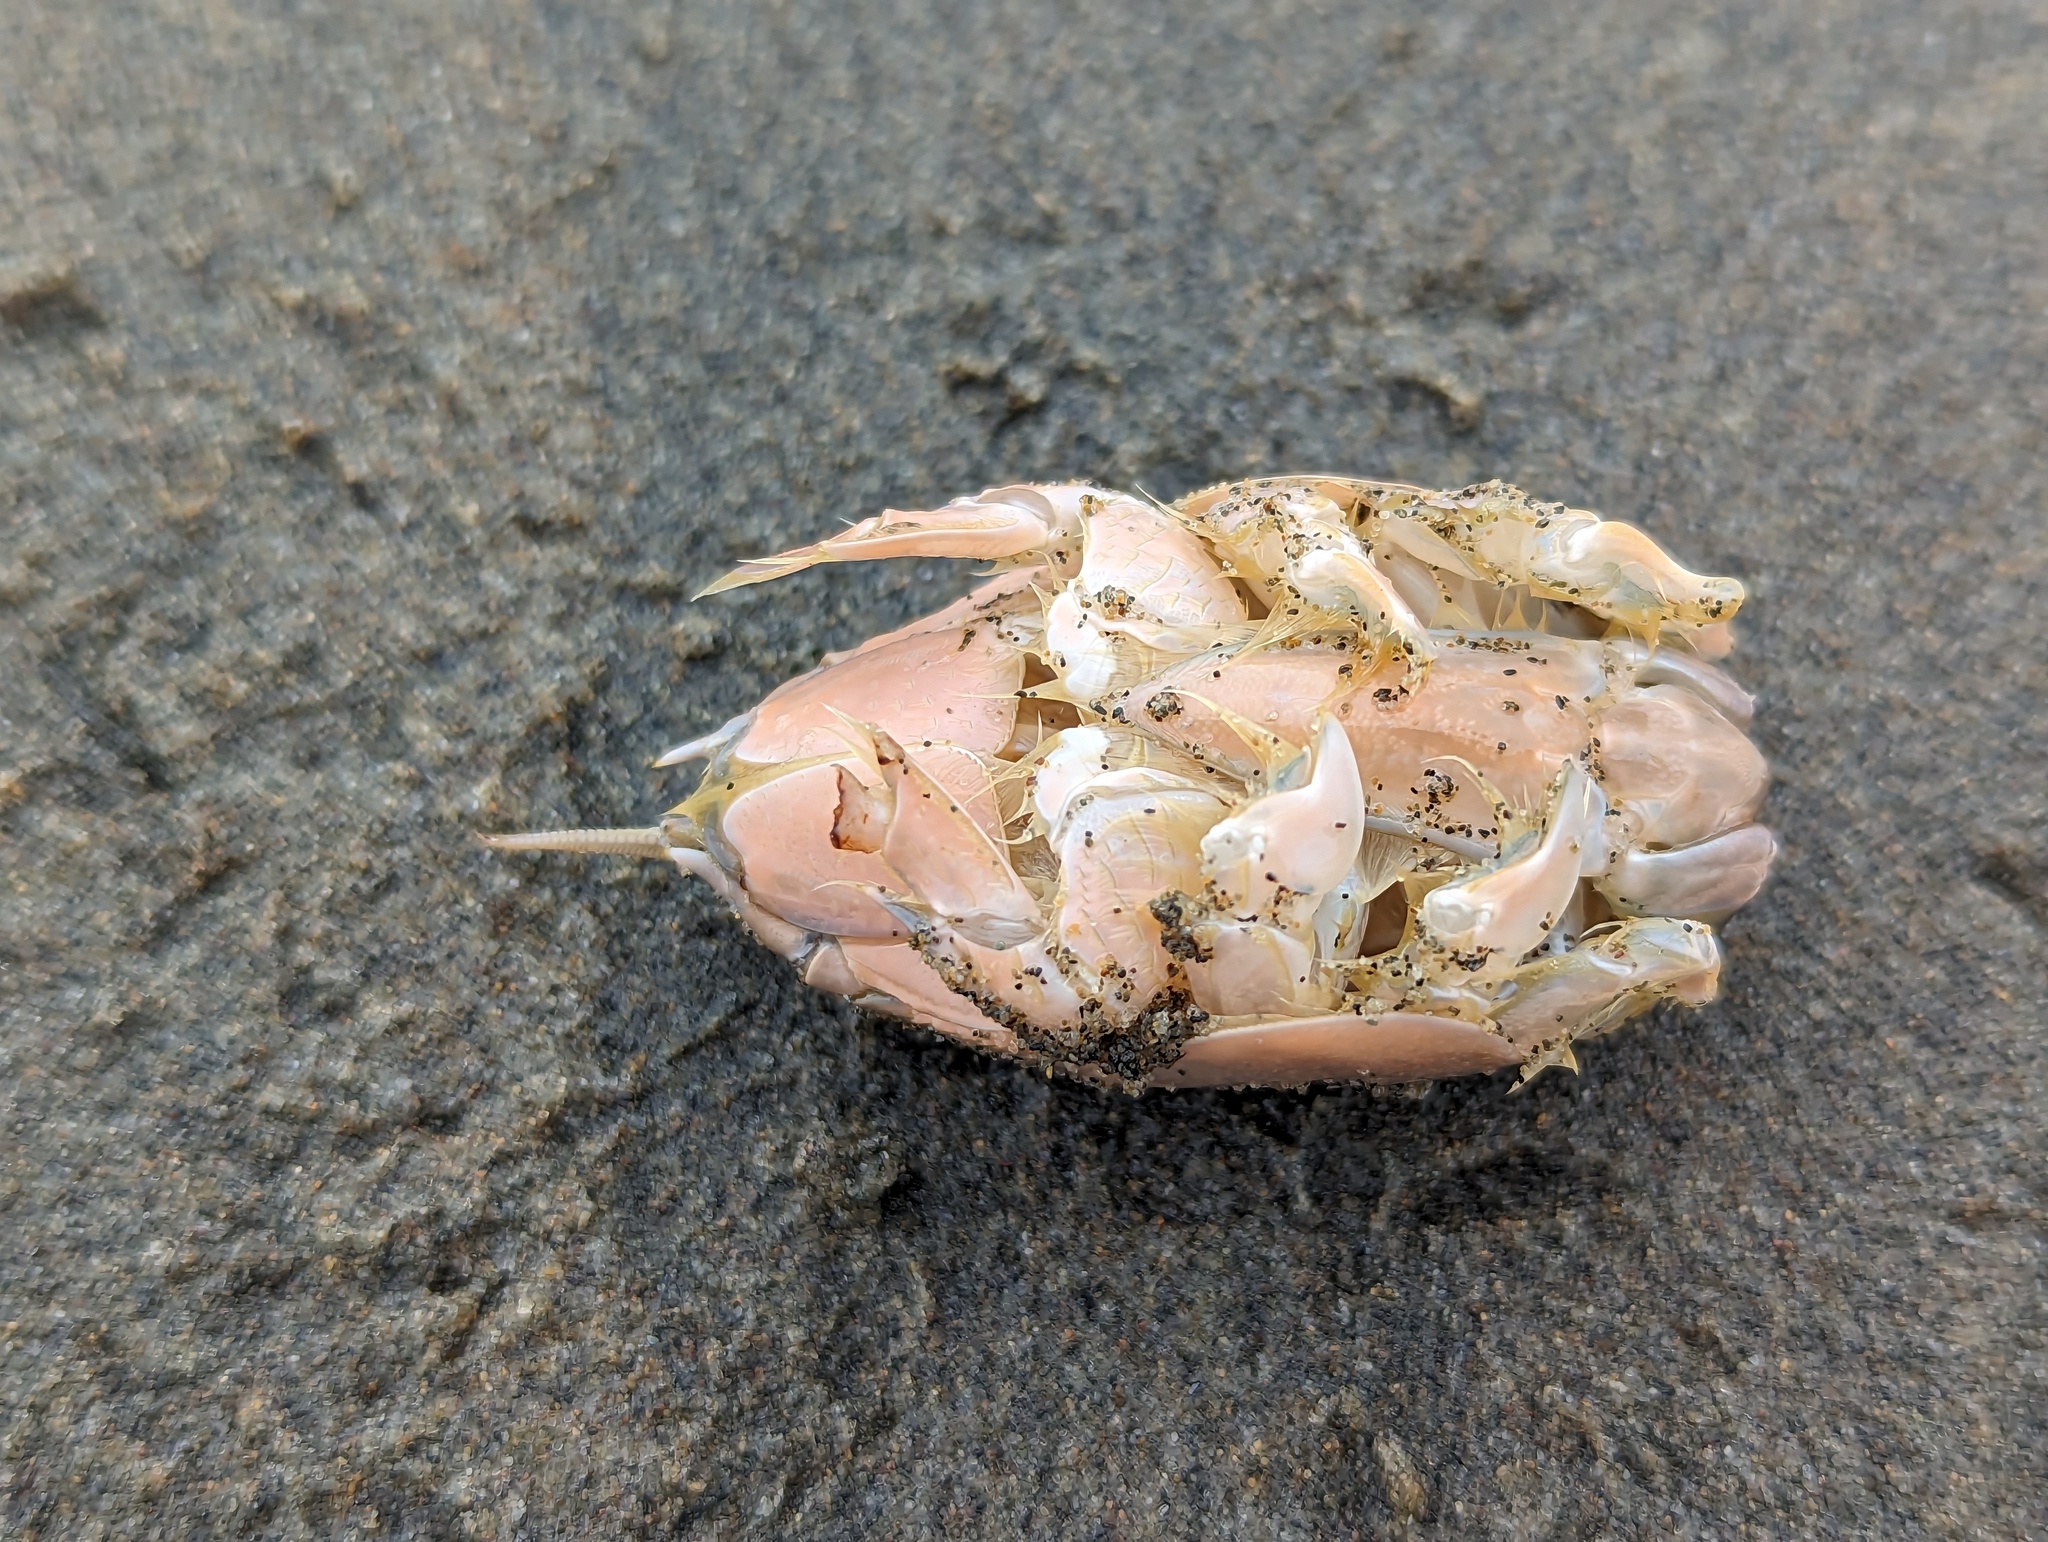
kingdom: Animalia
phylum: Arthropoda
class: Malacostraca
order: Decapoda
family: Hippidae
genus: Emerita
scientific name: Emerita analoga
